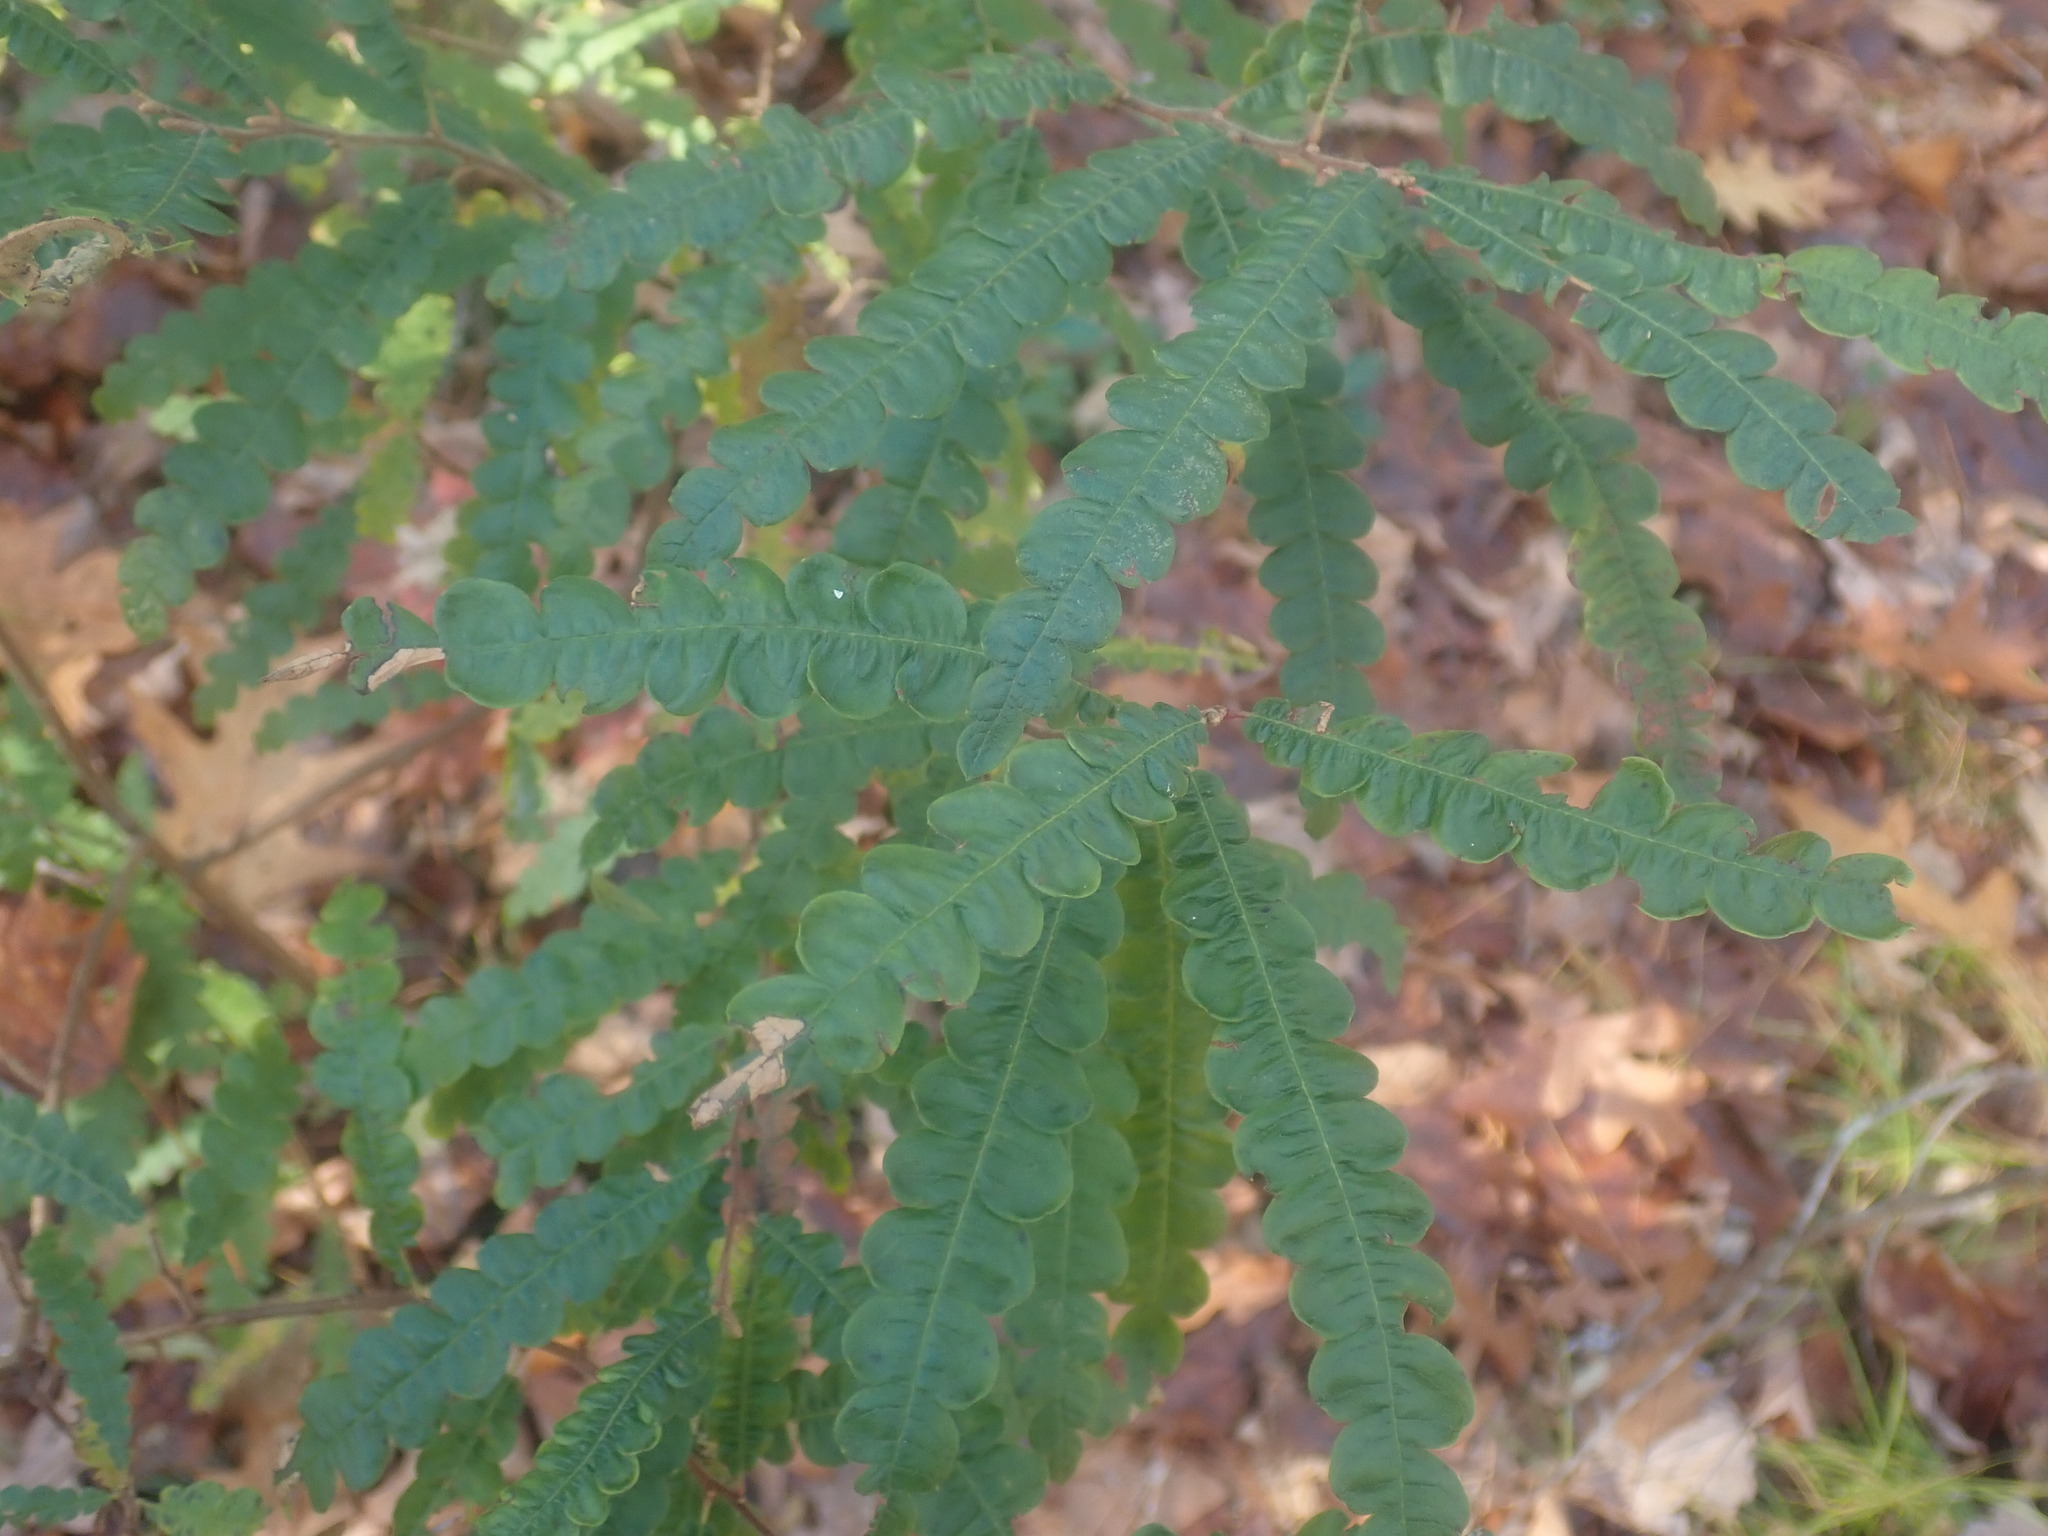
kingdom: Plantae
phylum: Tracheophyta
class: Magnoliopsida
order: Fagales
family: Myricaceae
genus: Comptonia
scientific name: Comptonia peregrina
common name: Sweet-fern
